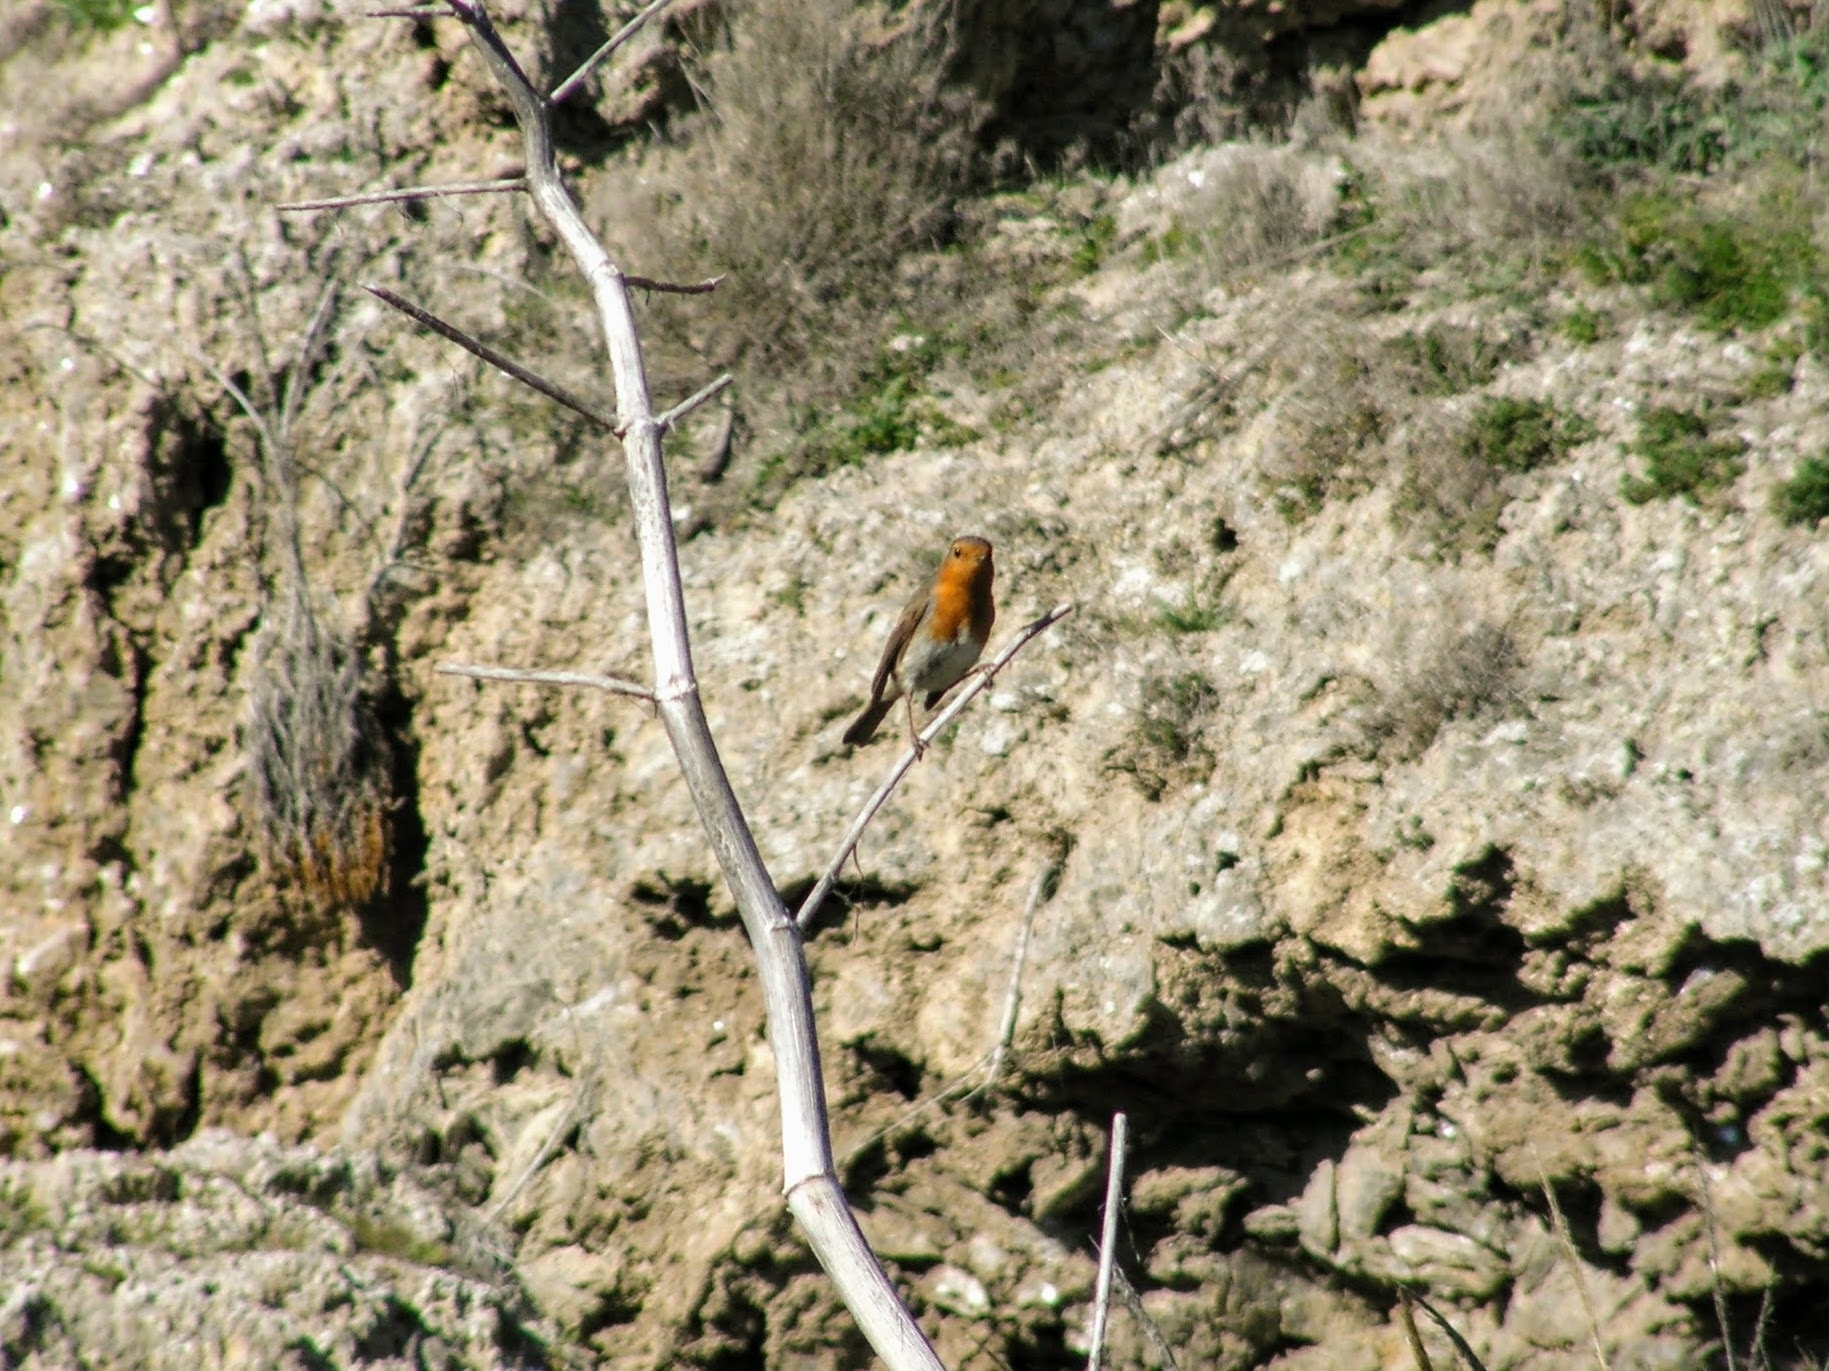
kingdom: Animalia
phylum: Chordata
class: Aves
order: Passeriformes
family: Muscicapidae
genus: Erithacus
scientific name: Erithacus rubecula
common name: European robin
